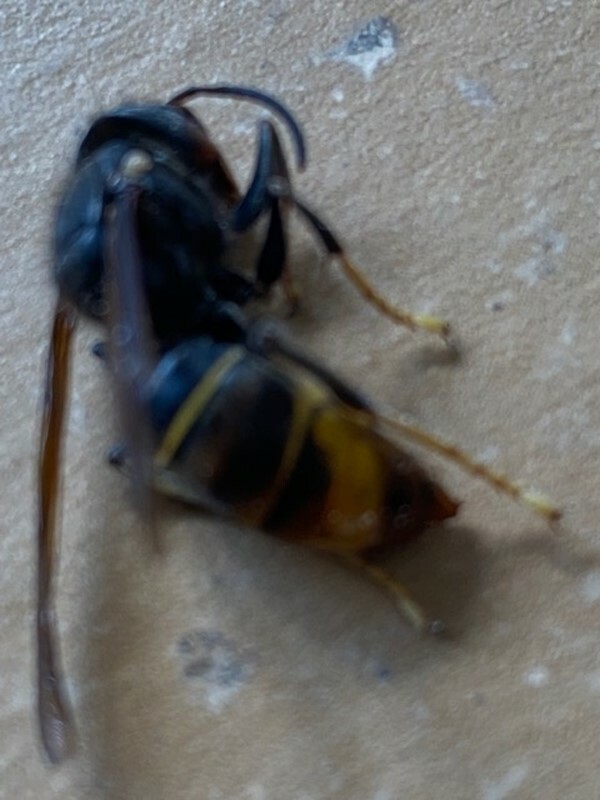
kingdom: Animalia
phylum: Arthropoda
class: Insecta
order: Hymenoptera
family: Vespidae
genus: Vespa
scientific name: Vespa velutina
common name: Asian hornet
